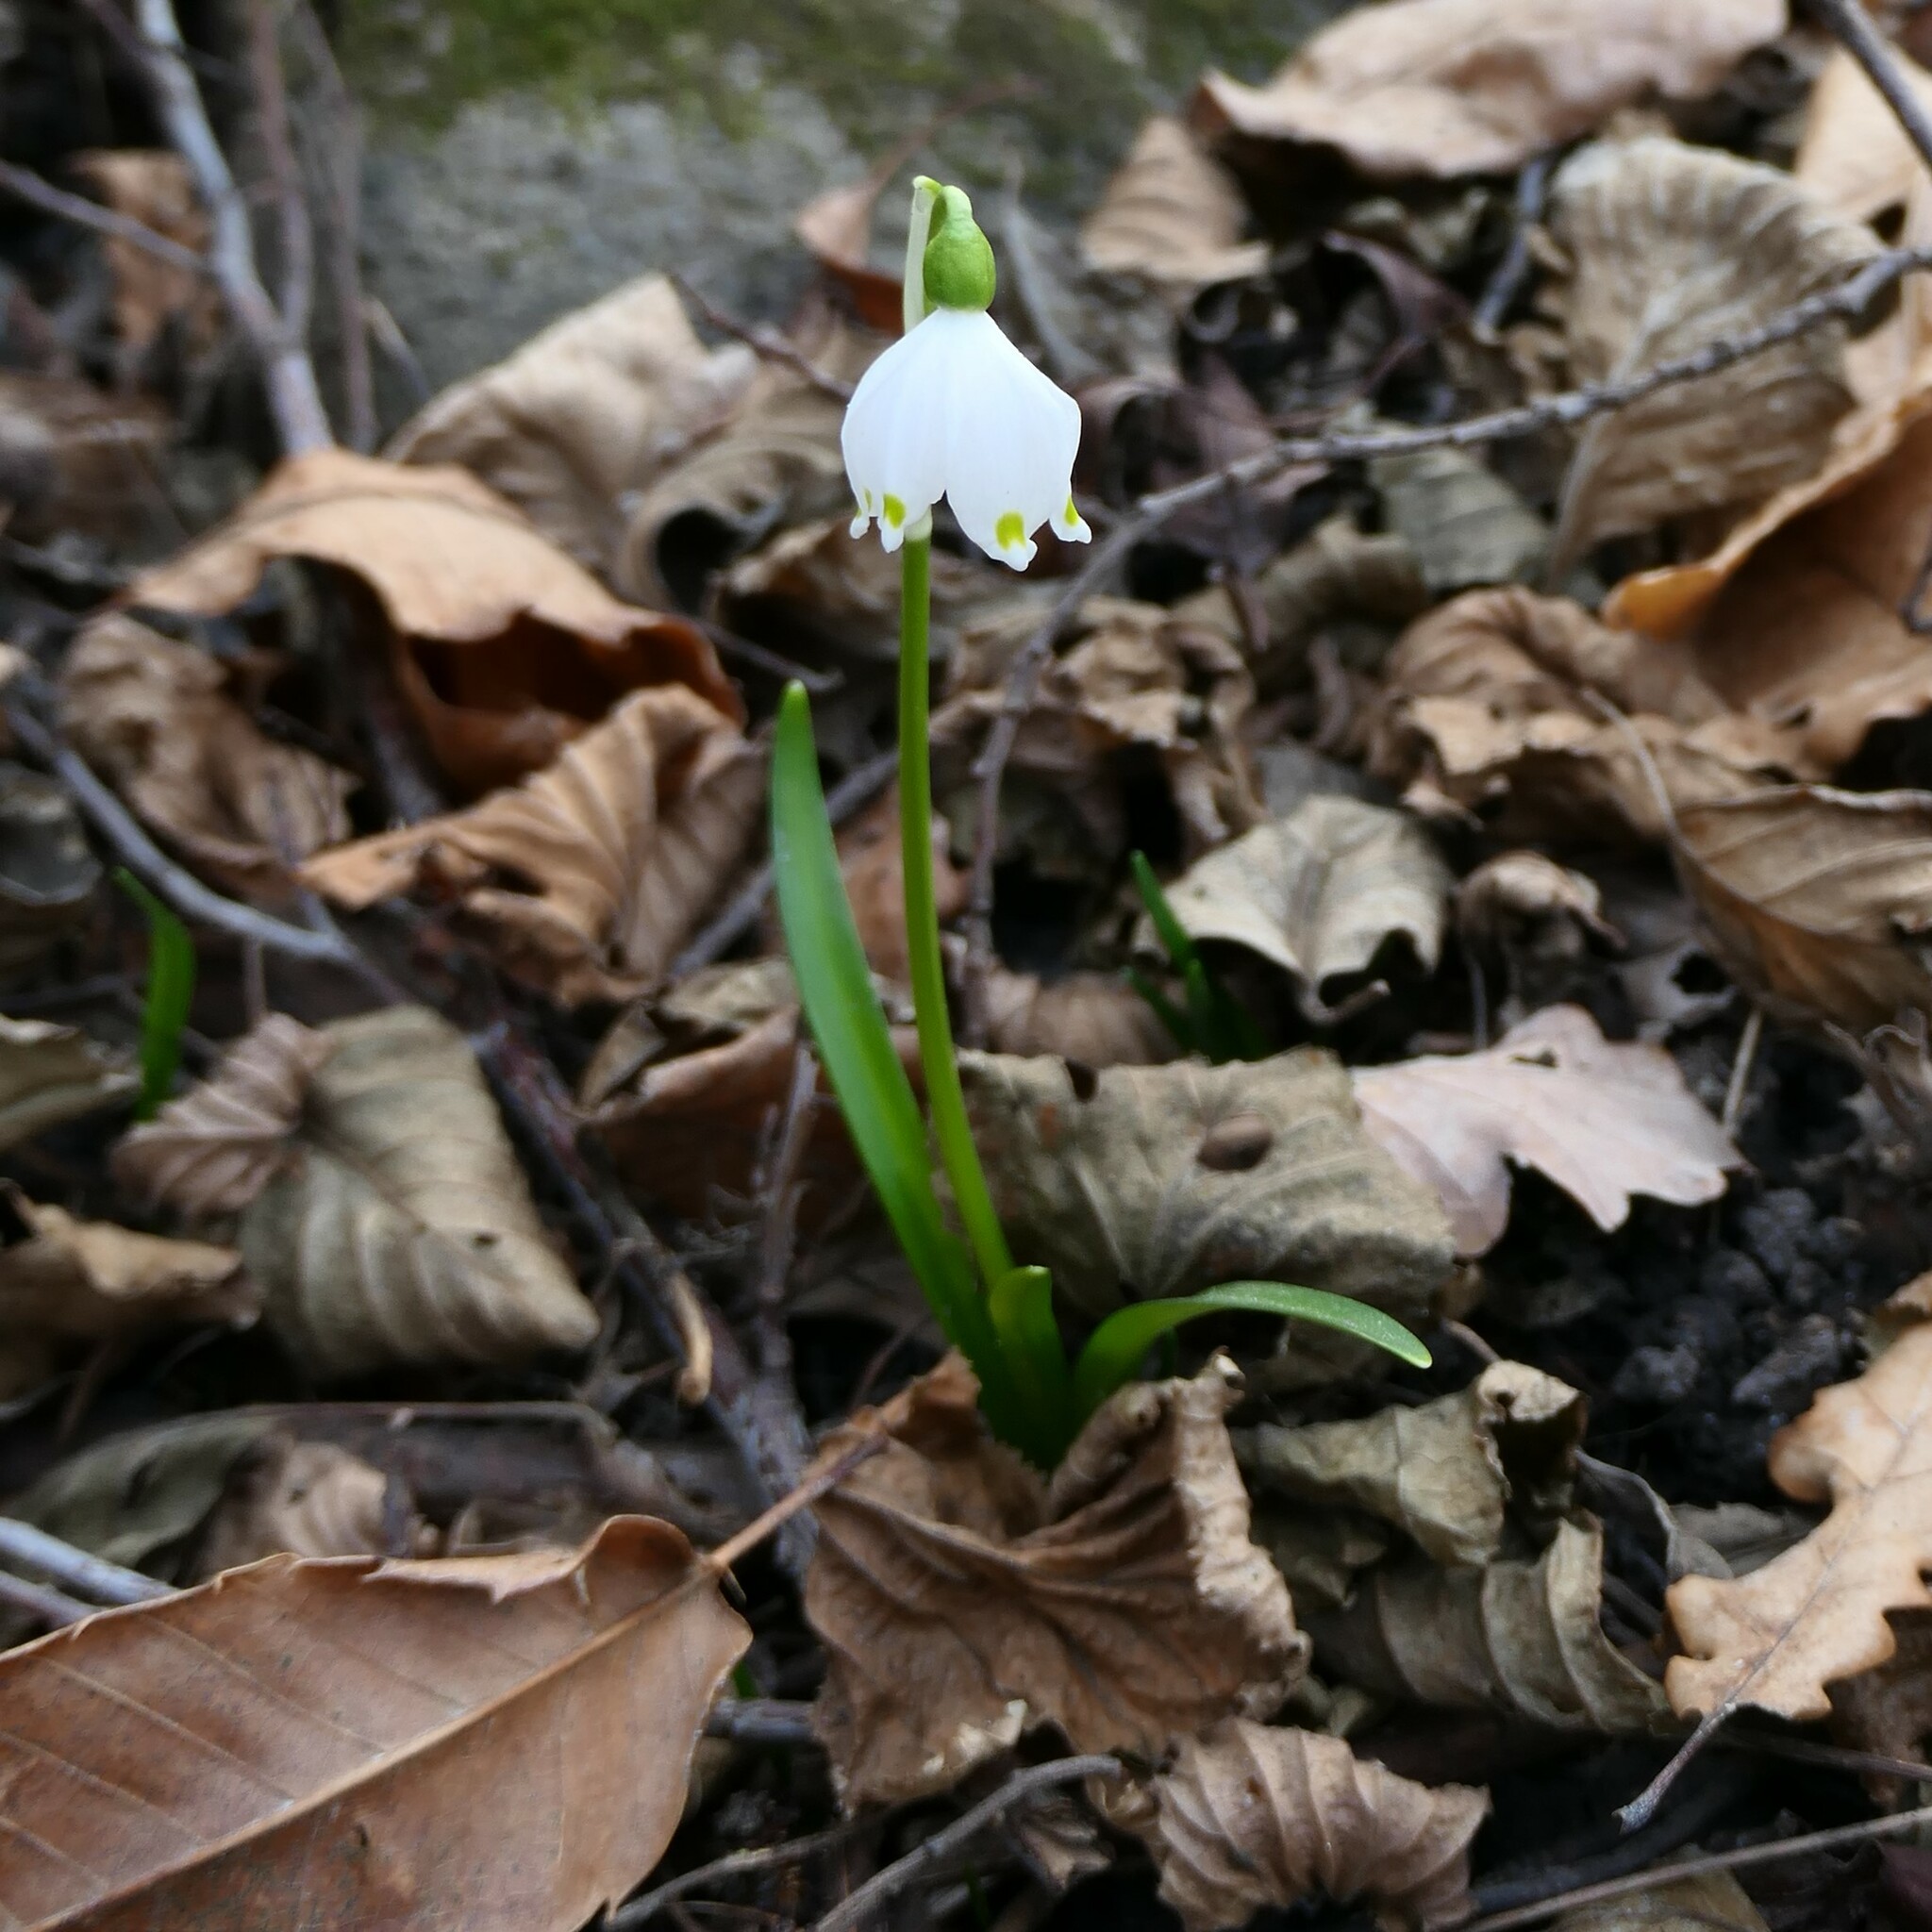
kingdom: Plantae
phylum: Tracheophyta
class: Liliopsida
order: Asparagales
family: Amaryllidaceae
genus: Leucojum
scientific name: Leucojum vernum
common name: Spring snowflake
